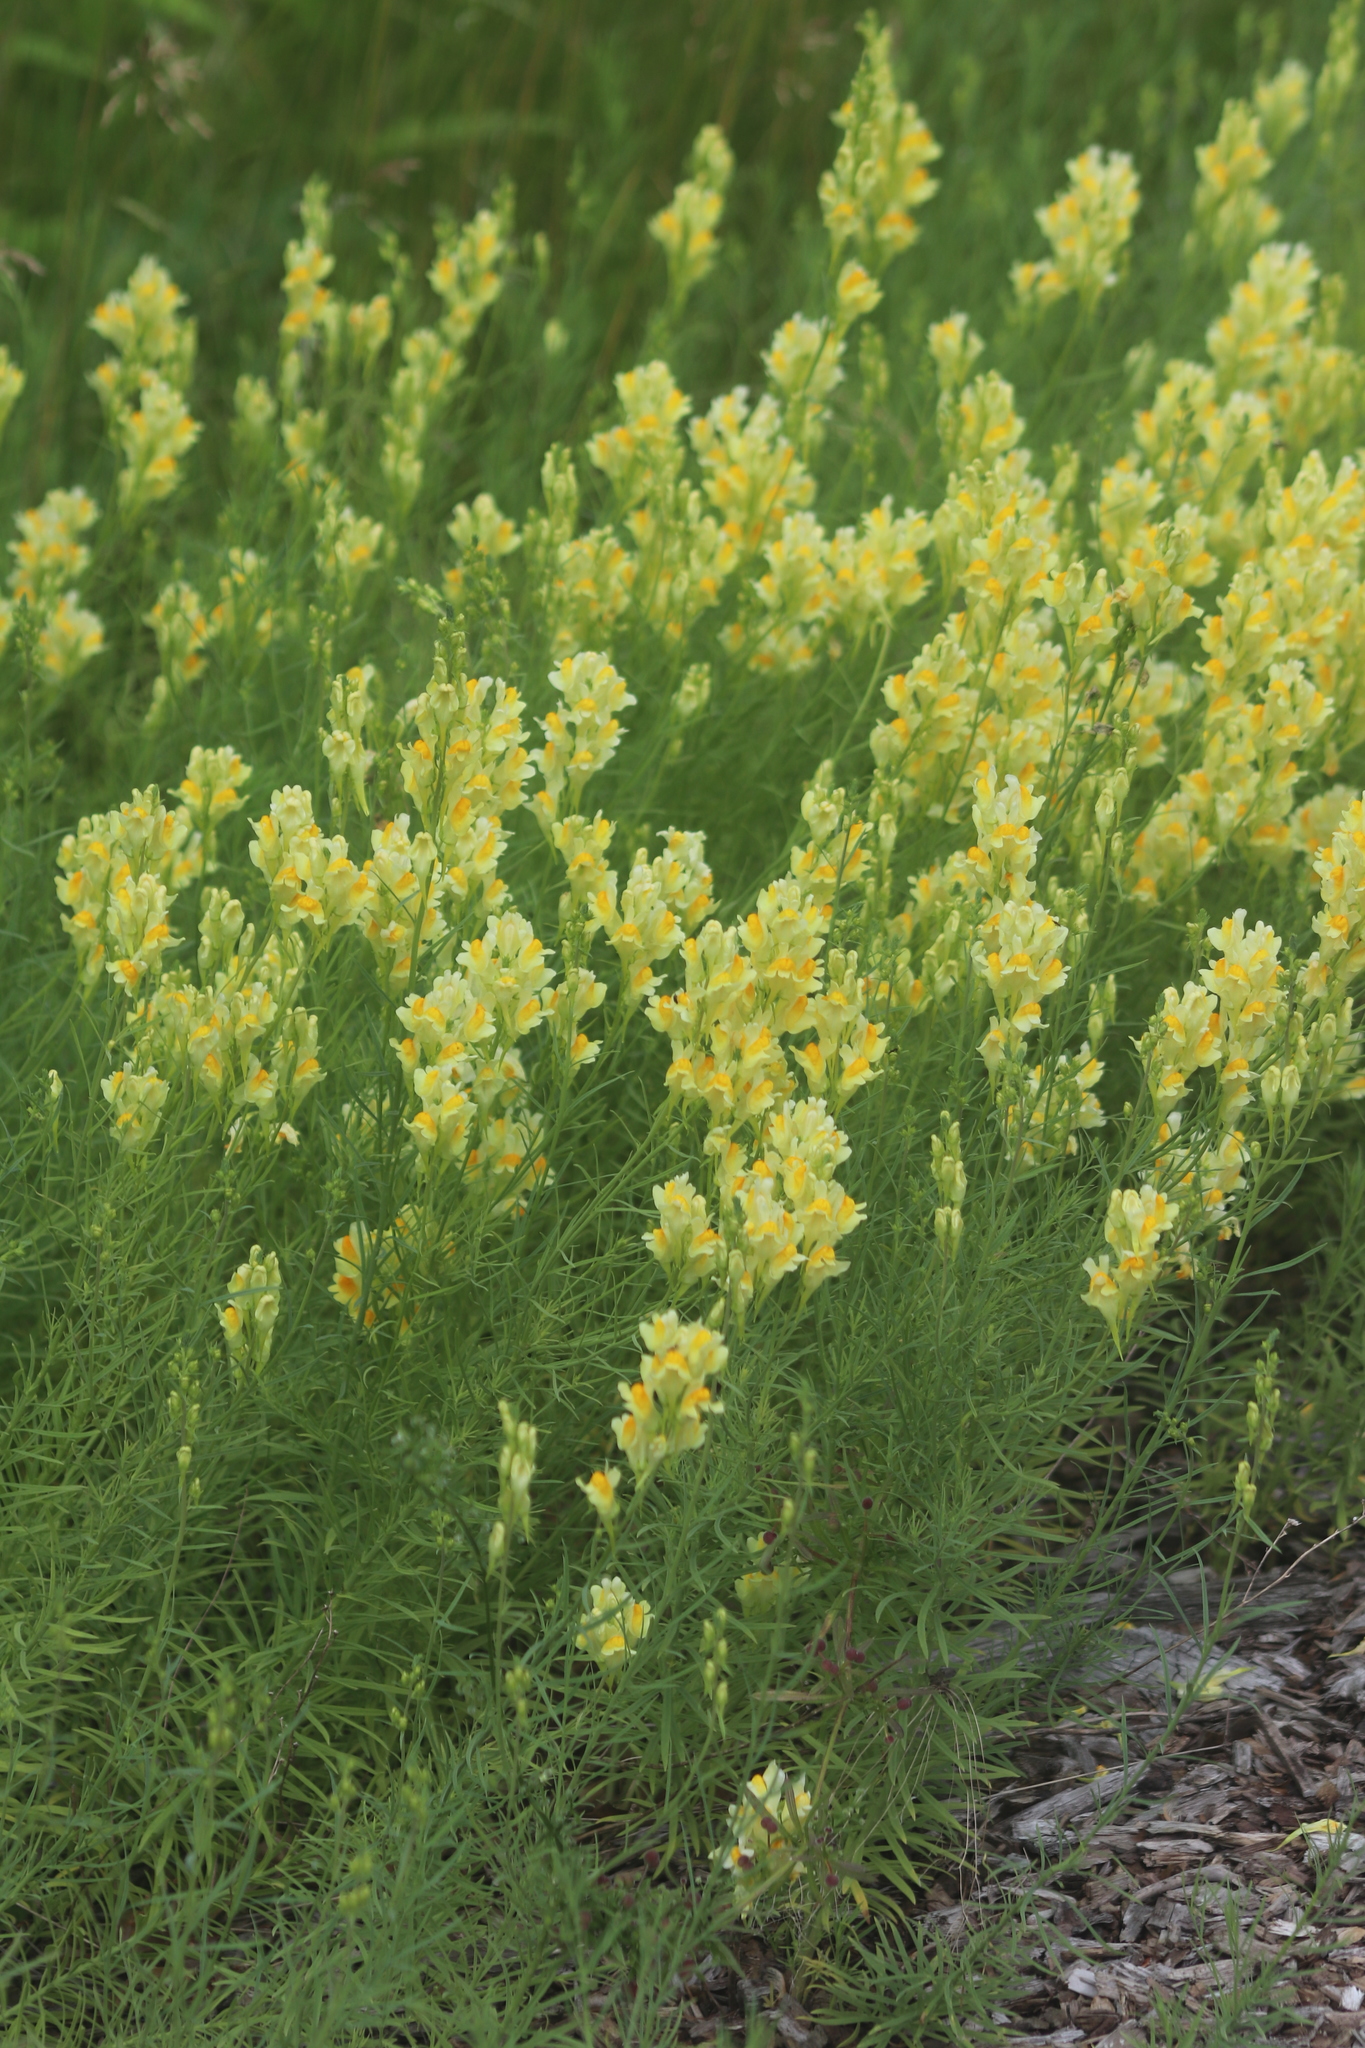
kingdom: Plantae
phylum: Tracheophyta
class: Magnoliopsida
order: Lamiales
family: Plantaginaceae
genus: Linaria
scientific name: Linaria vulgaris
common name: Butter and eggs
